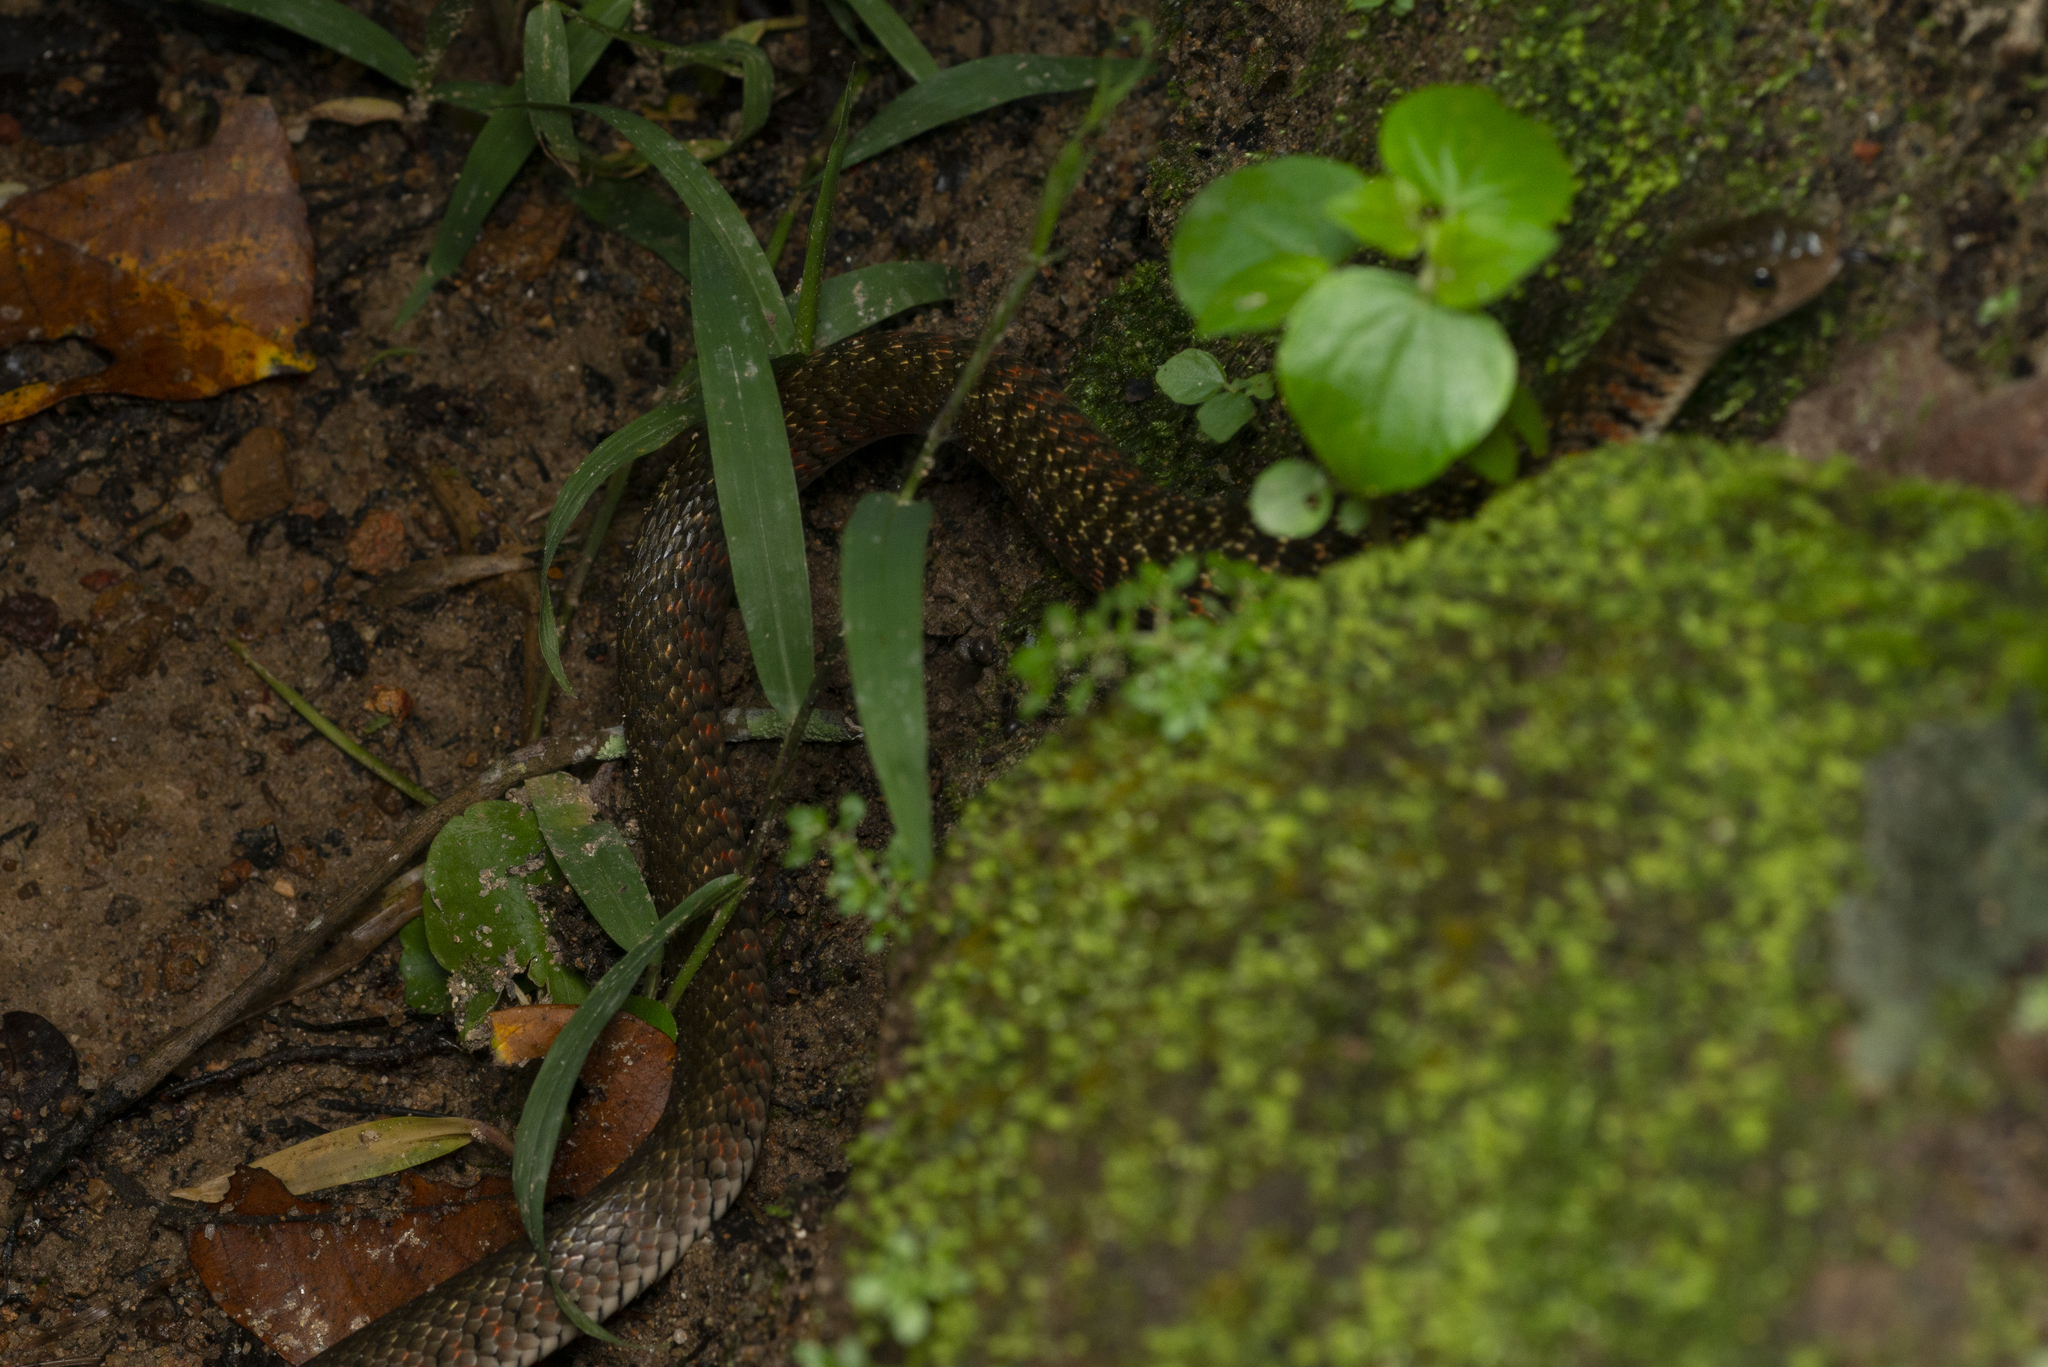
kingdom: Animalia
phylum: Chordata
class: Squamata
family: Colubridae
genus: Fowlea
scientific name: Fowlea flavipunctatus
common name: Yellow-spotted keelback
